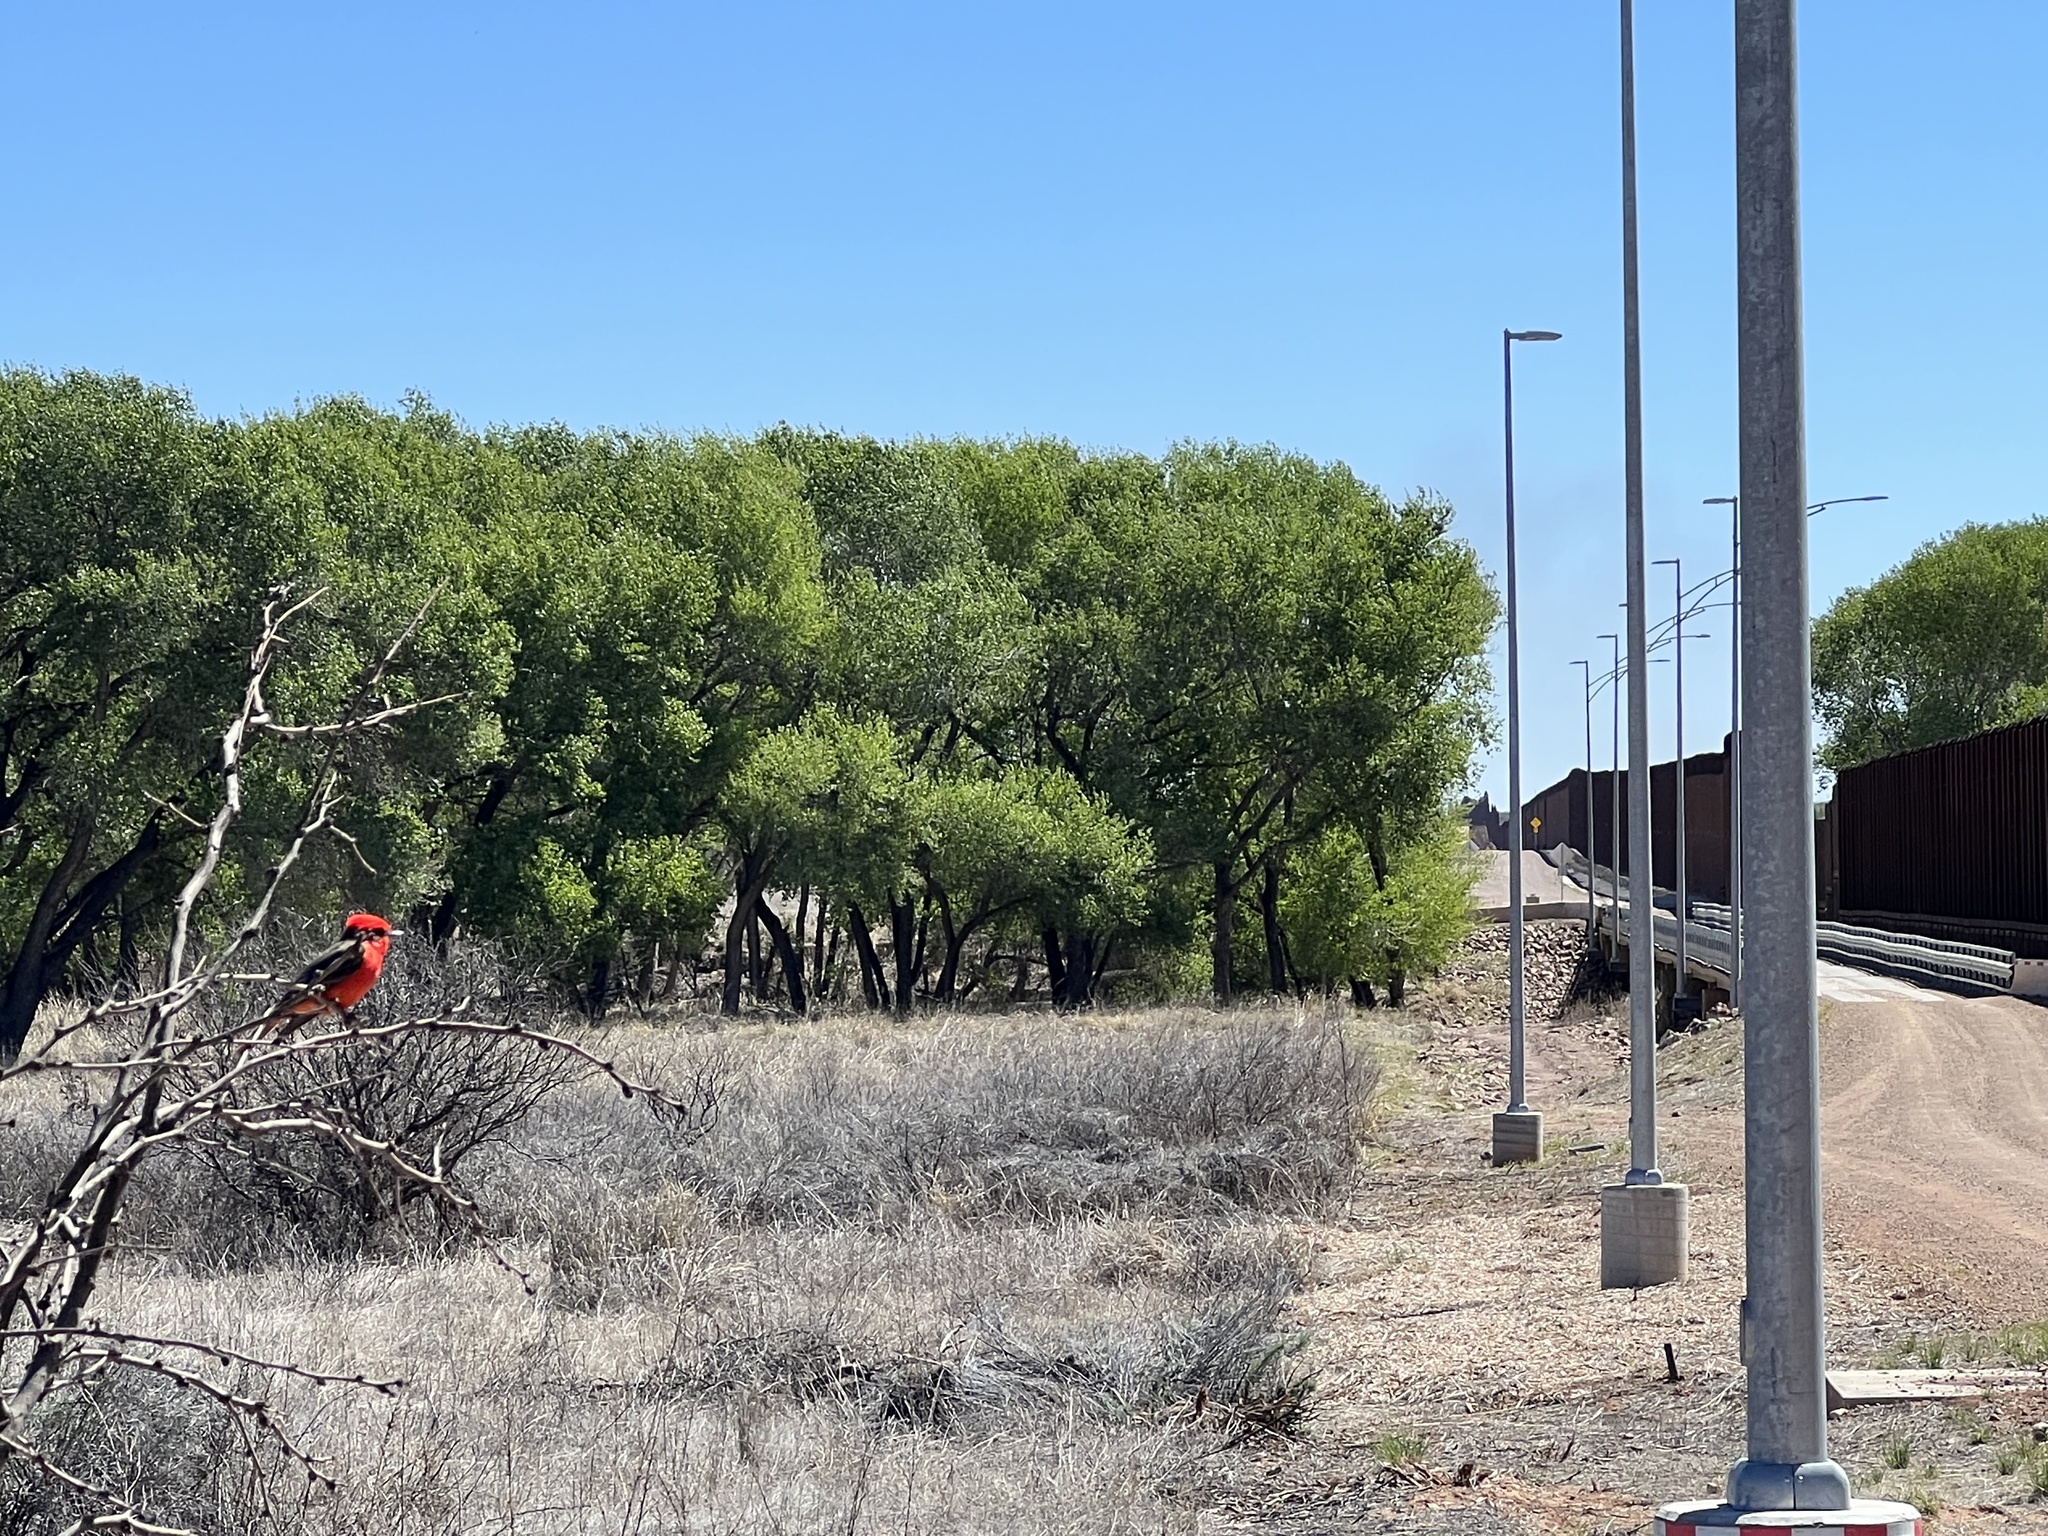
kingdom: Animalia
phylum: Chordata
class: Aves
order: Passeriformes
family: Tyrannidae
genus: Pyrocephalus
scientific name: Pyrocephalus rubinus
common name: Vermilion flycatcher
